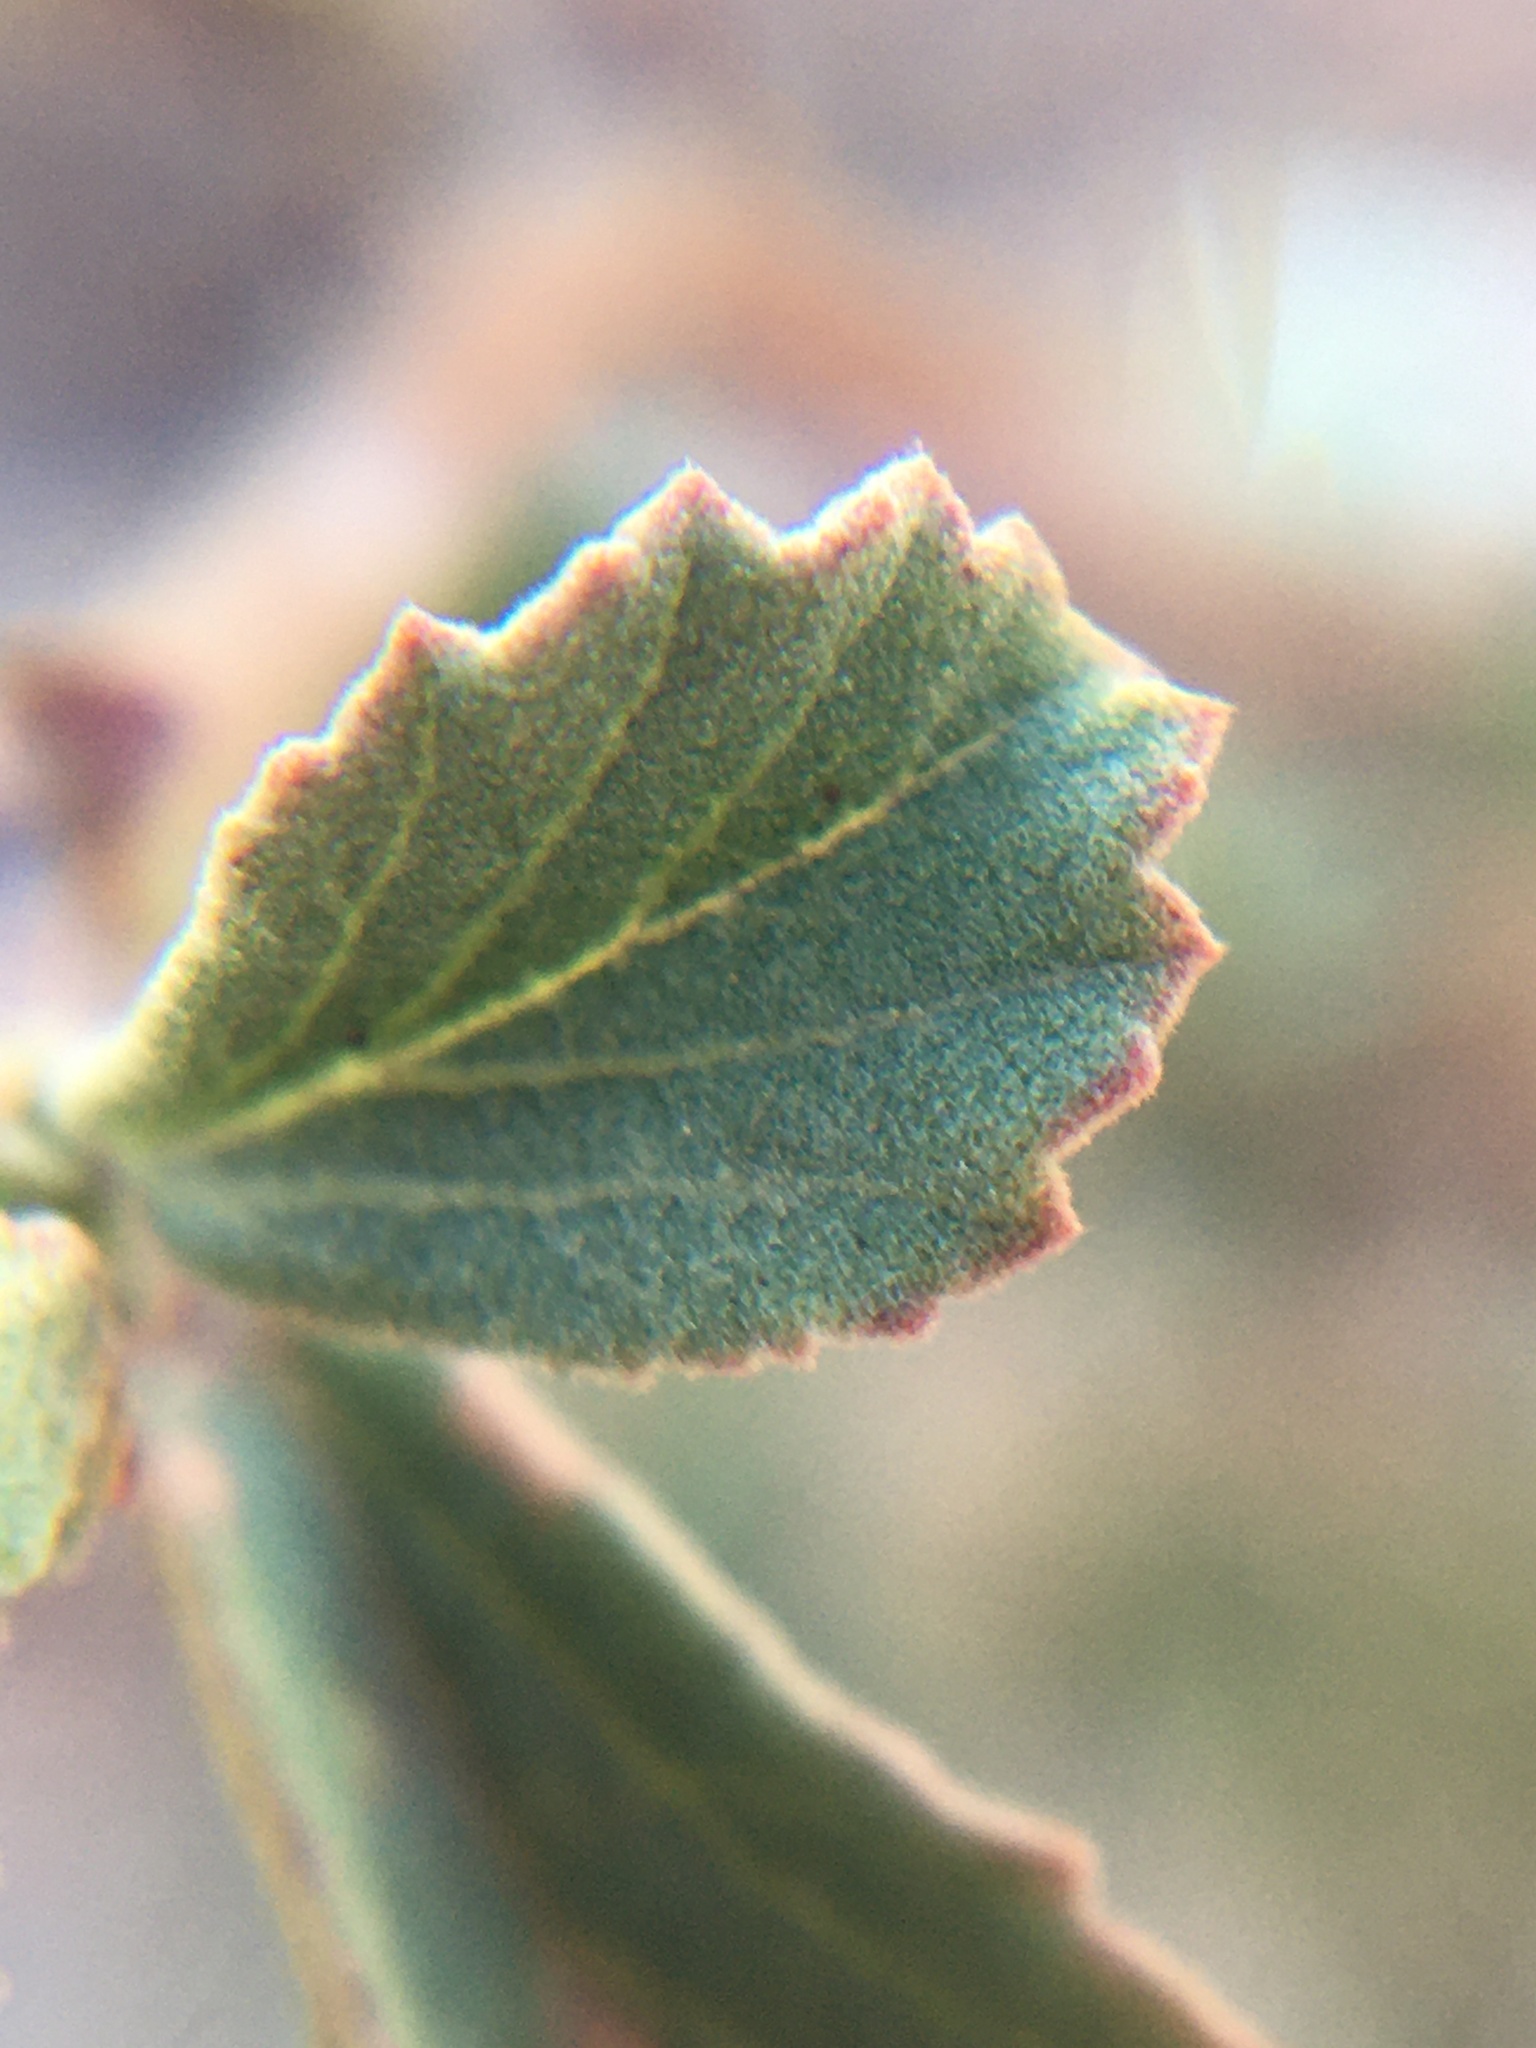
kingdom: Plantae
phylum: Tracheophyta
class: Magnoliopsida
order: Malvales
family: Malvaceae
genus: Hermannia
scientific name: Hermannia multiflora
